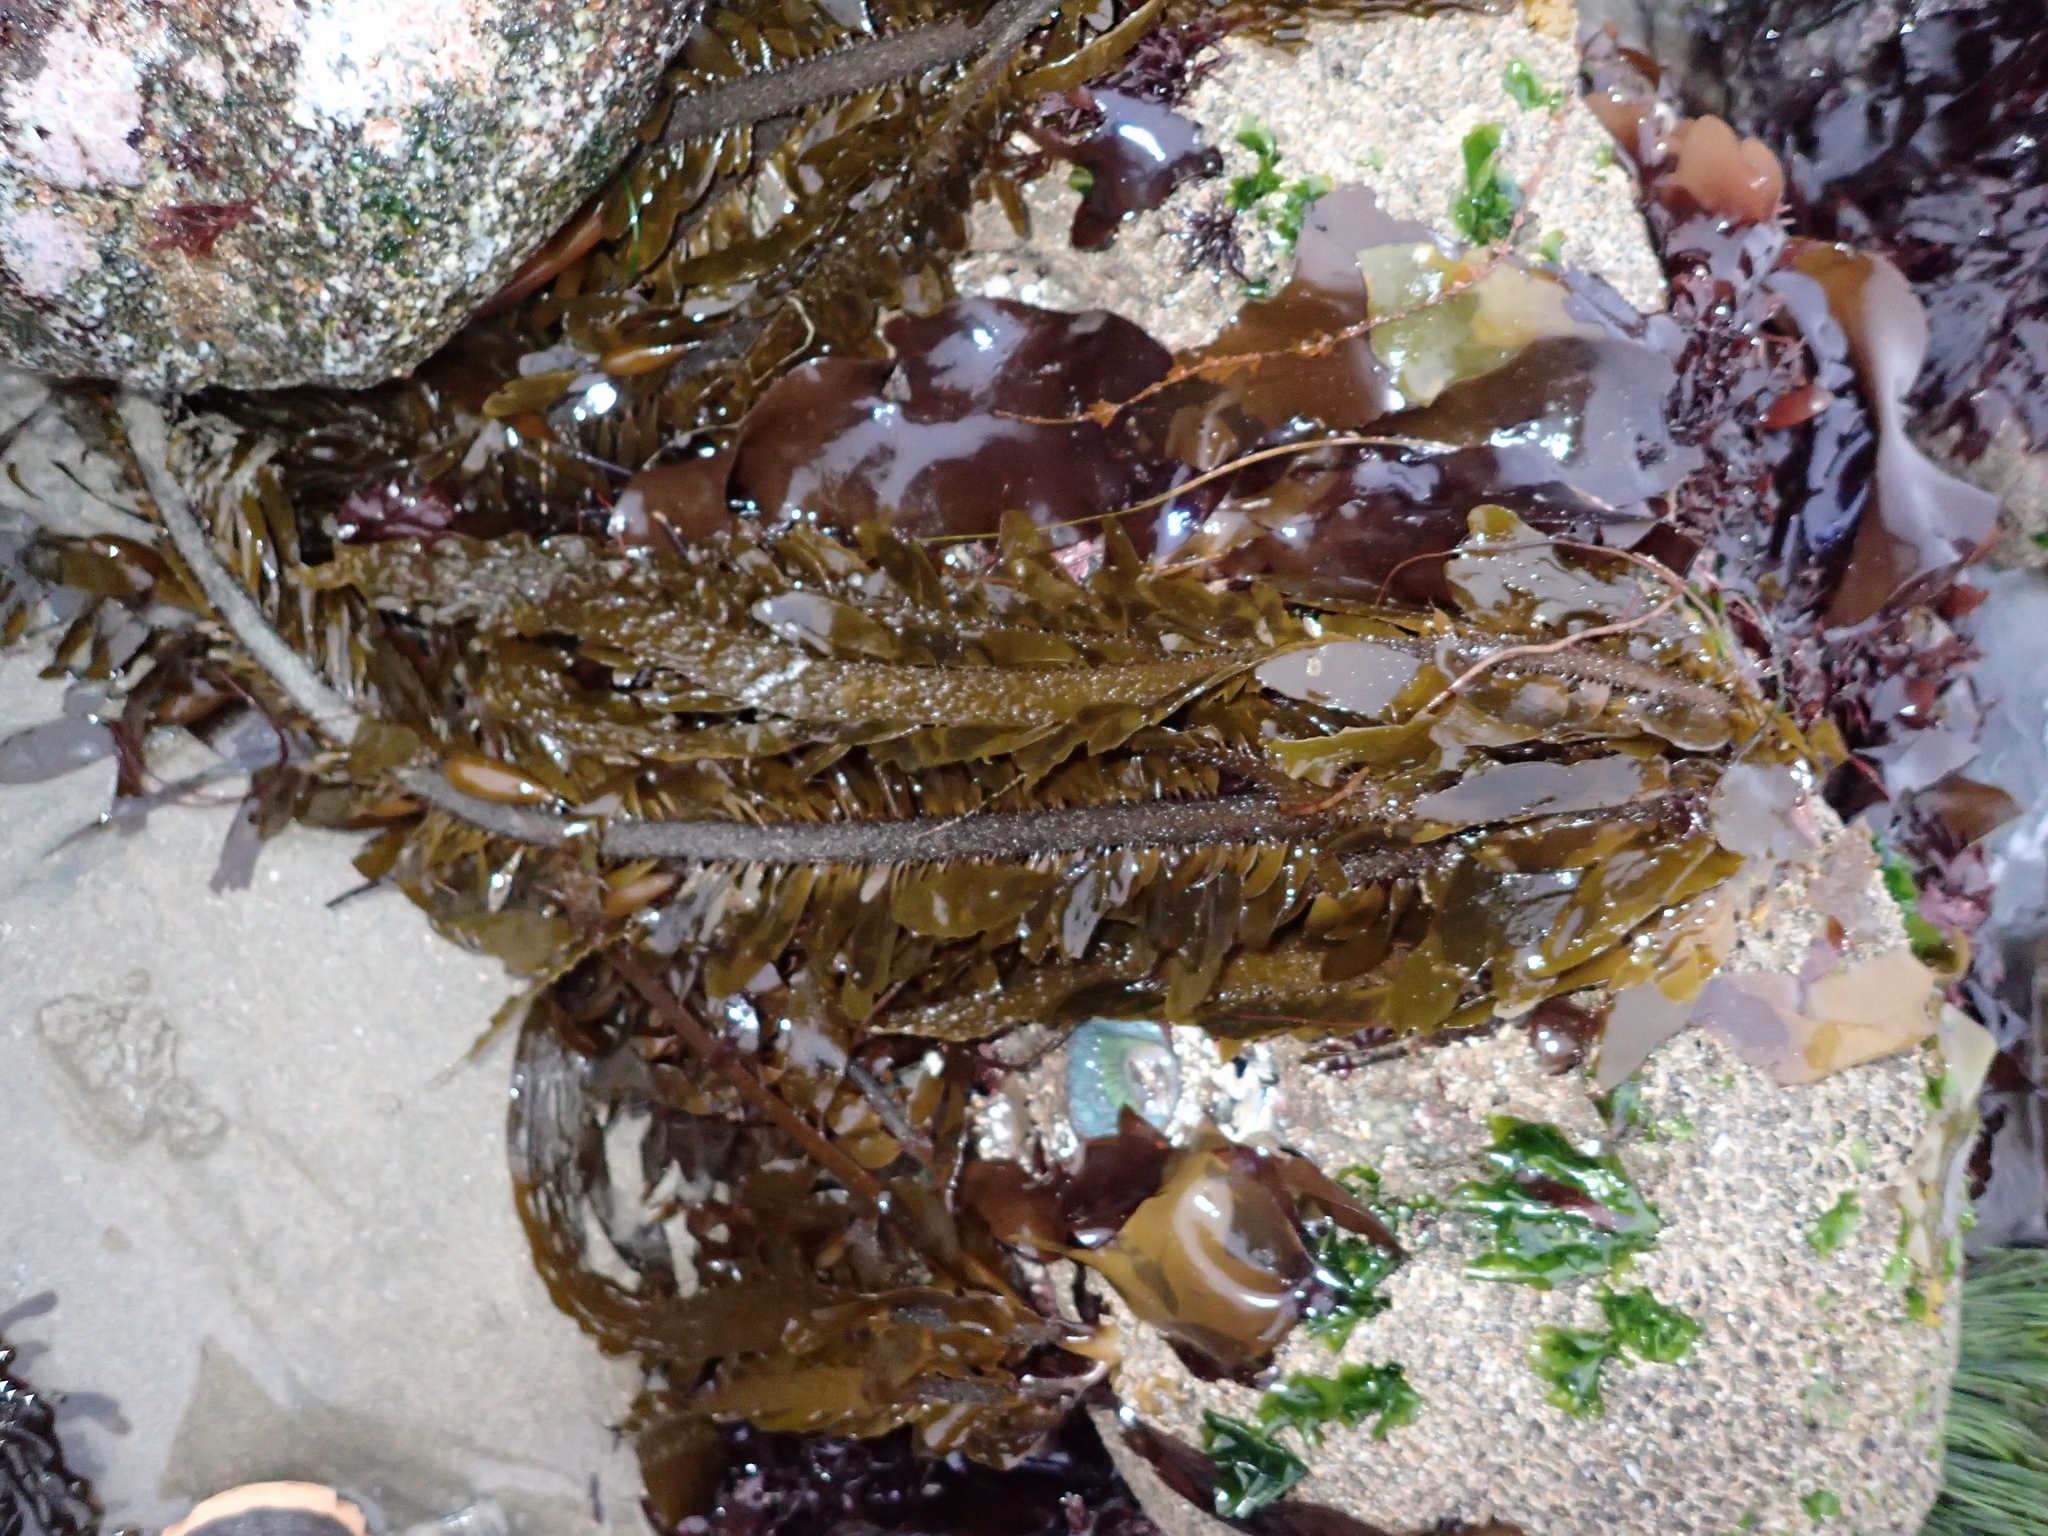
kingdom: Chromista
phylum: Ochrophyta
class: Phaeophyceae
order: Laminariales
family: Lessoniaceae
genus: Egregia
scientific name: Egregia menziesii
